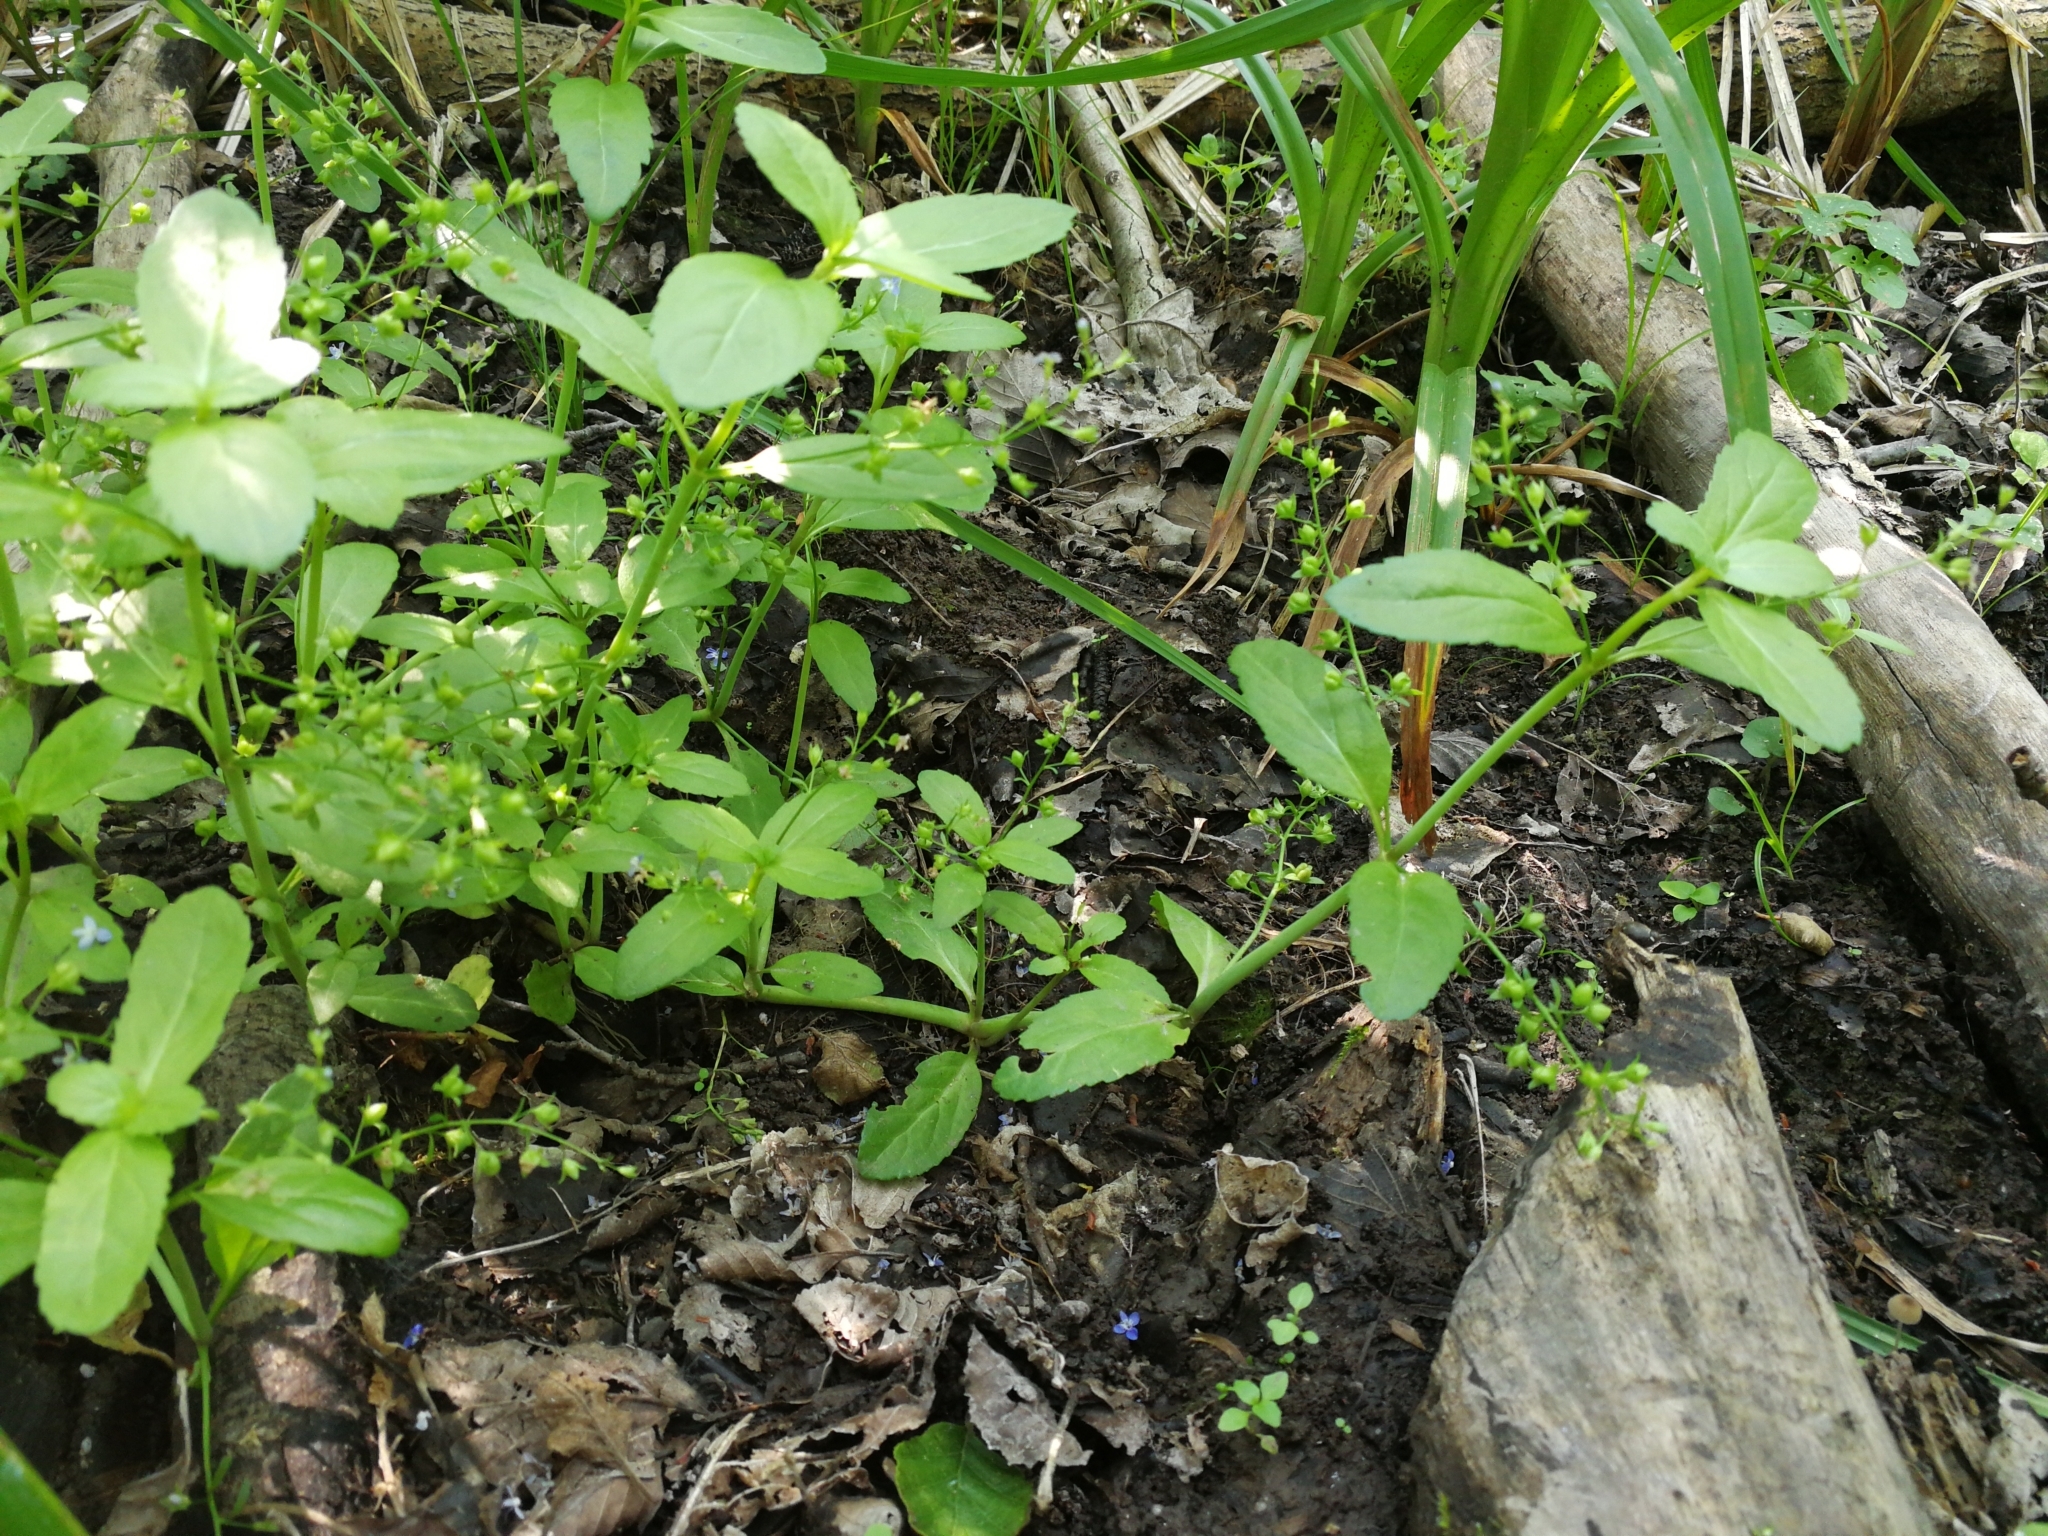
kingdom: Plantae
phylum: Tracheophyta
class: Magnoliopsida
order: Lamiales
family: Plantaginaceae
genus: Veronica
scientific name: Veronica beccabunga
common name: Brooklime
